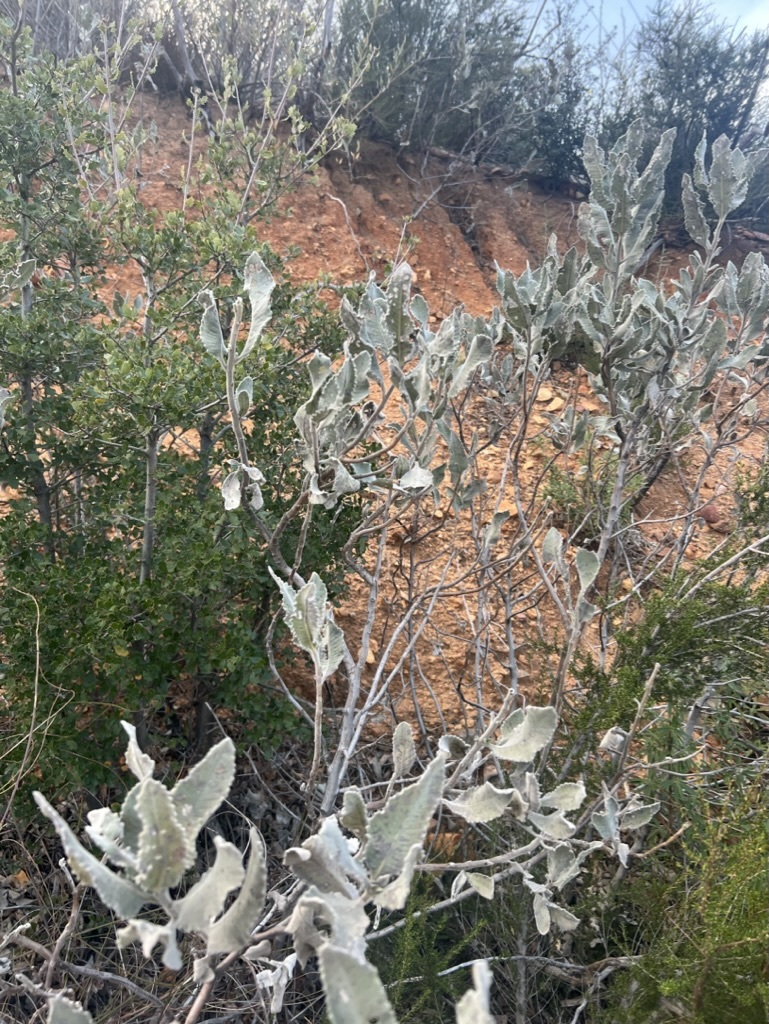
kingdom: Plantae
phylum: Tracheophyta
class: Magnoliopsida
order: Boraginales
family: Namaceae
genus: Eriodictyon
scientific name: Eriodictyon crassifolium
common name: Thick-leaf yerba-santa
